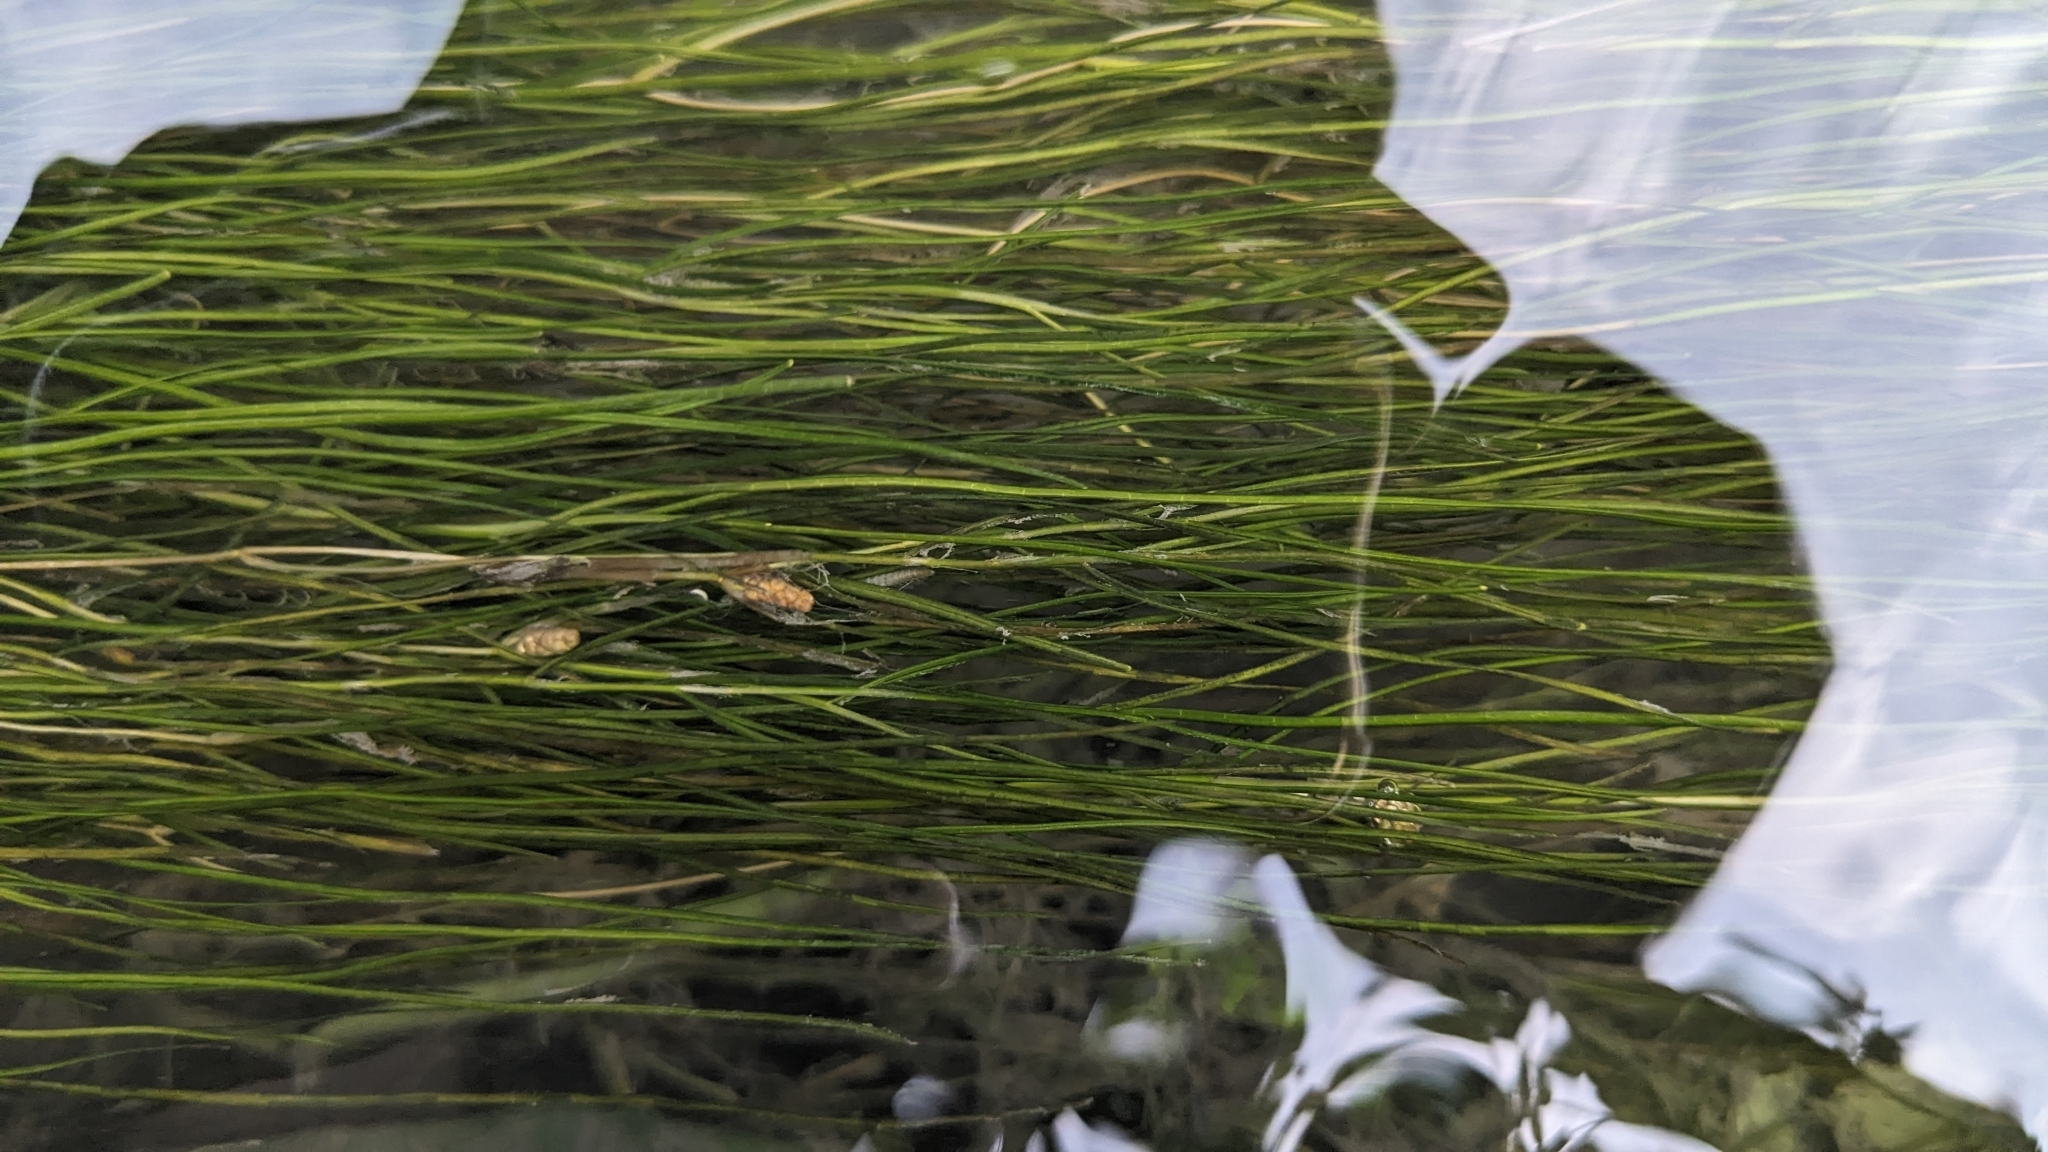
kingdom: Plantae
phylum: Tracheophyta
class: Liliopsida
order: Alismatales
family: Potamogetonaceae
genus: Stuckenia
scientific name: Stuckenia pectinata
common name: Sago pondweed
